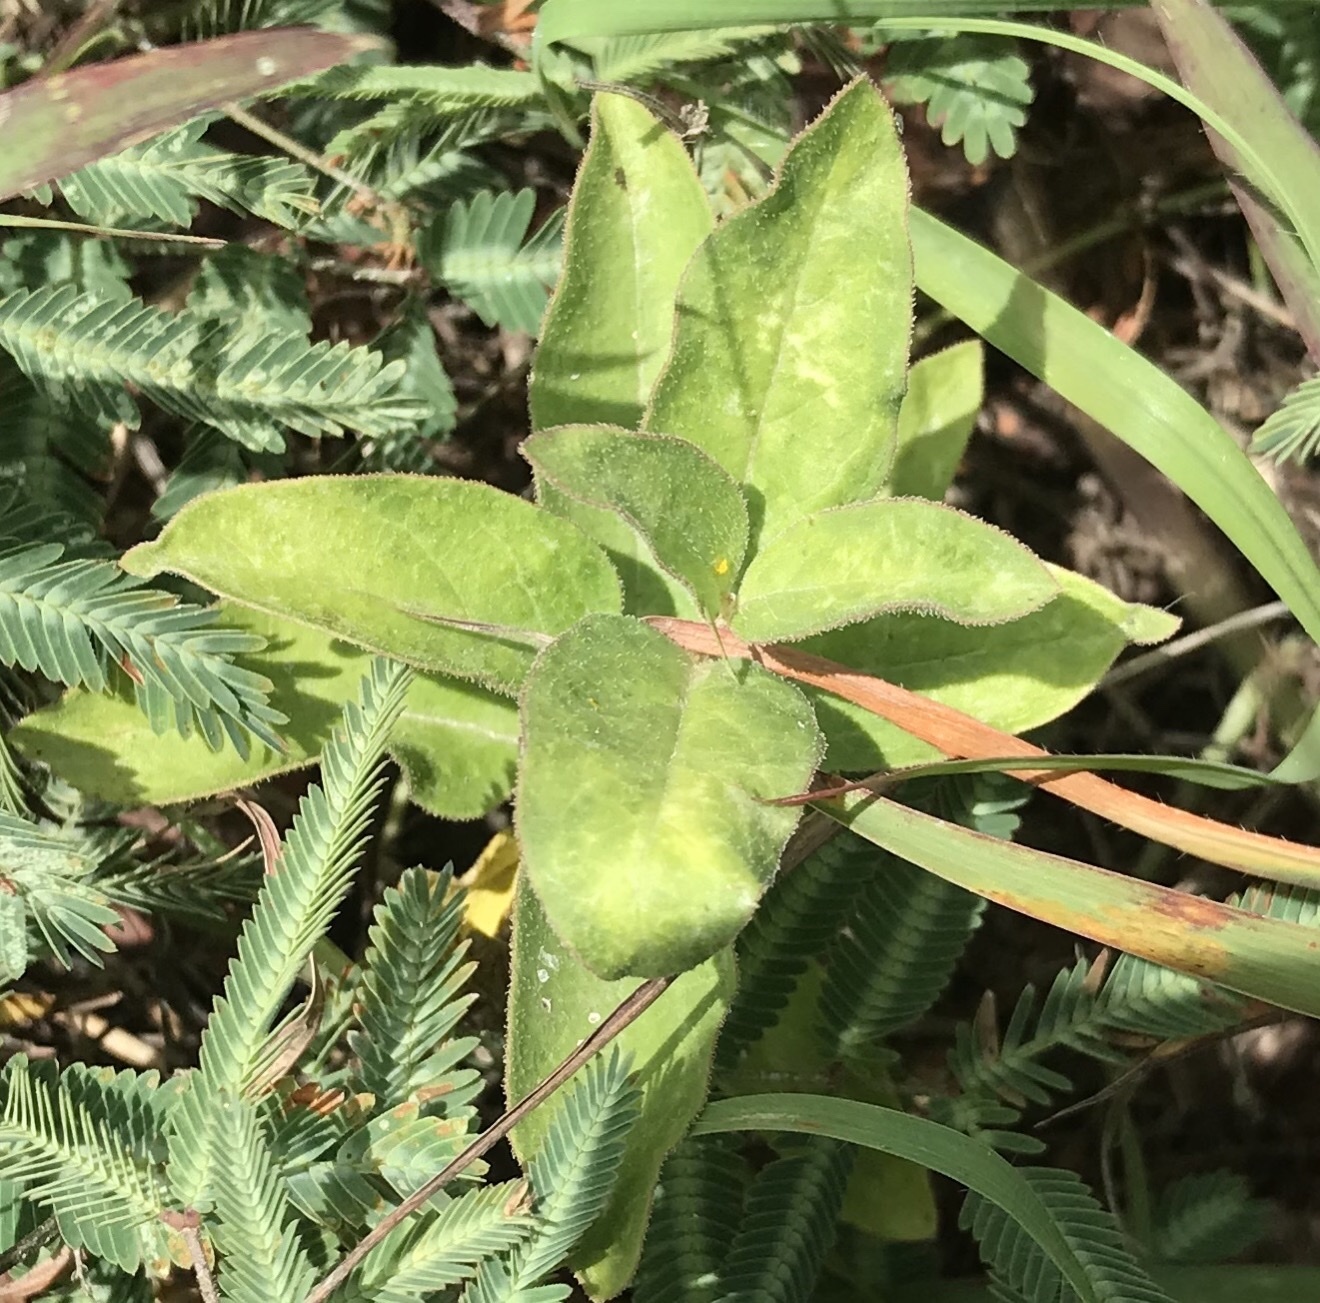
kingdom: Plantae
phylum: Tracheophyta
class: Magnoliopsida
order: Gentianales
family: Apocynaceae
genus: Asclepias
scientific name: Asclepias oenotheroides
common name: Zizotes milkweed
